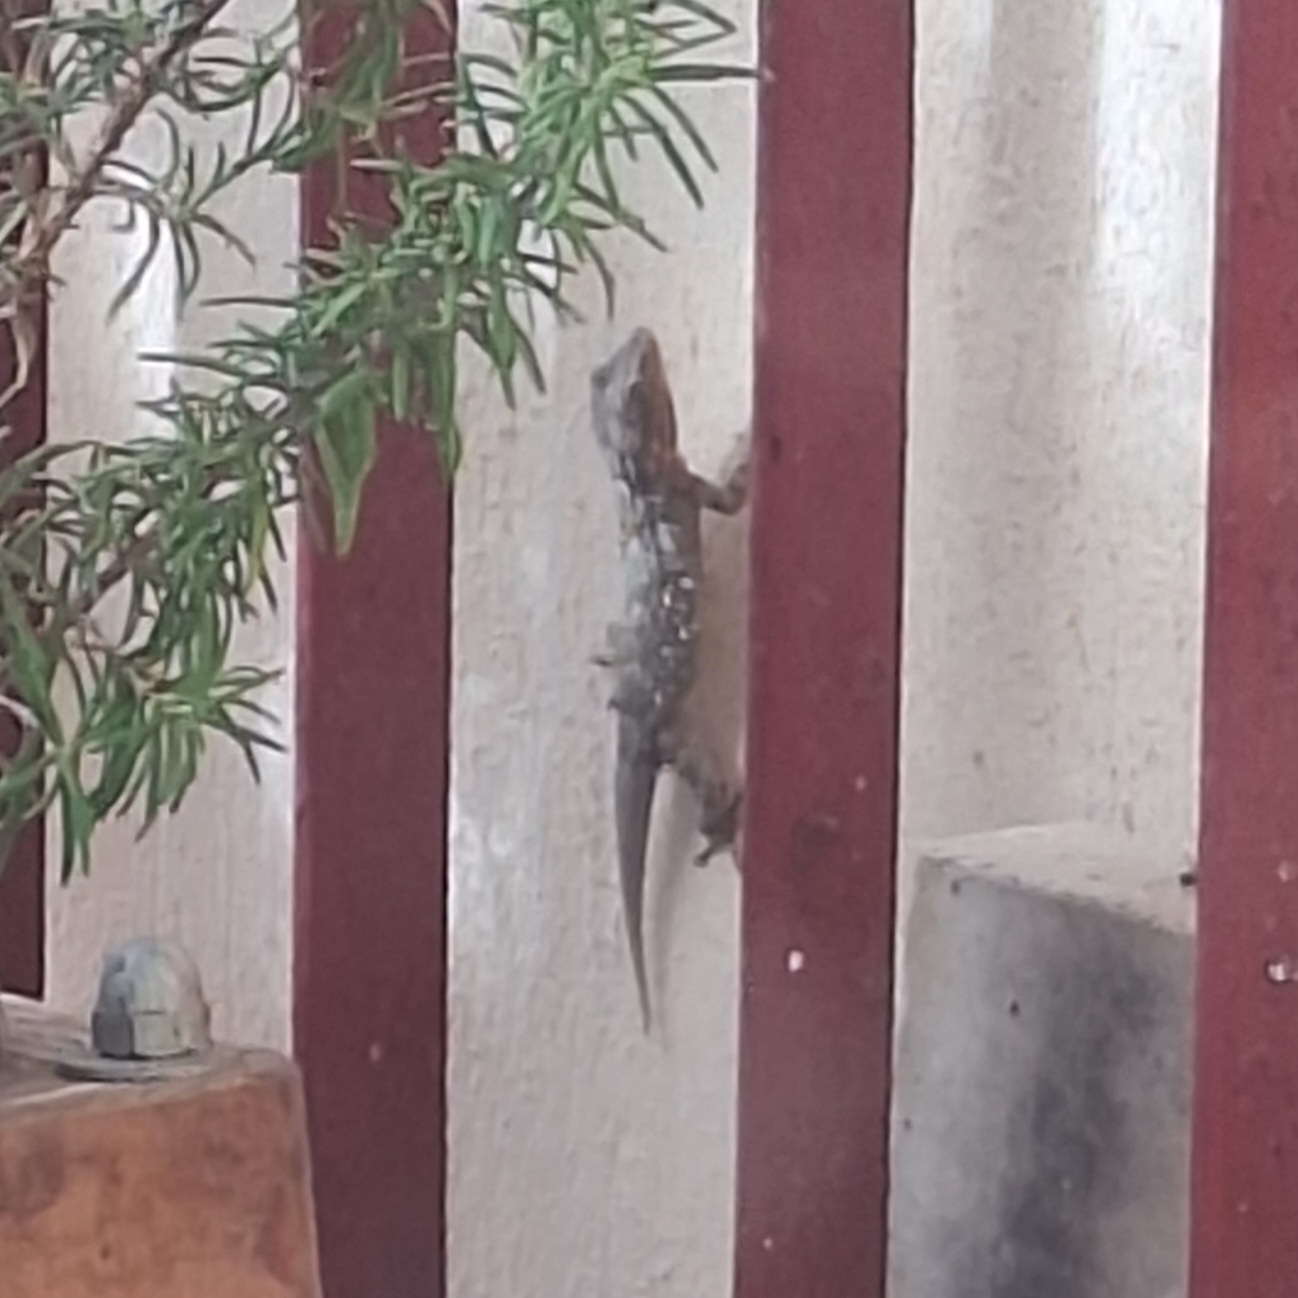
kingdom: Animalia
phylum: Chordata
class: Squamata
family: Phyllodactylidae
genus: Tarentola
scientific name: Tarentola mauritanica
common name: Moorish gecko
